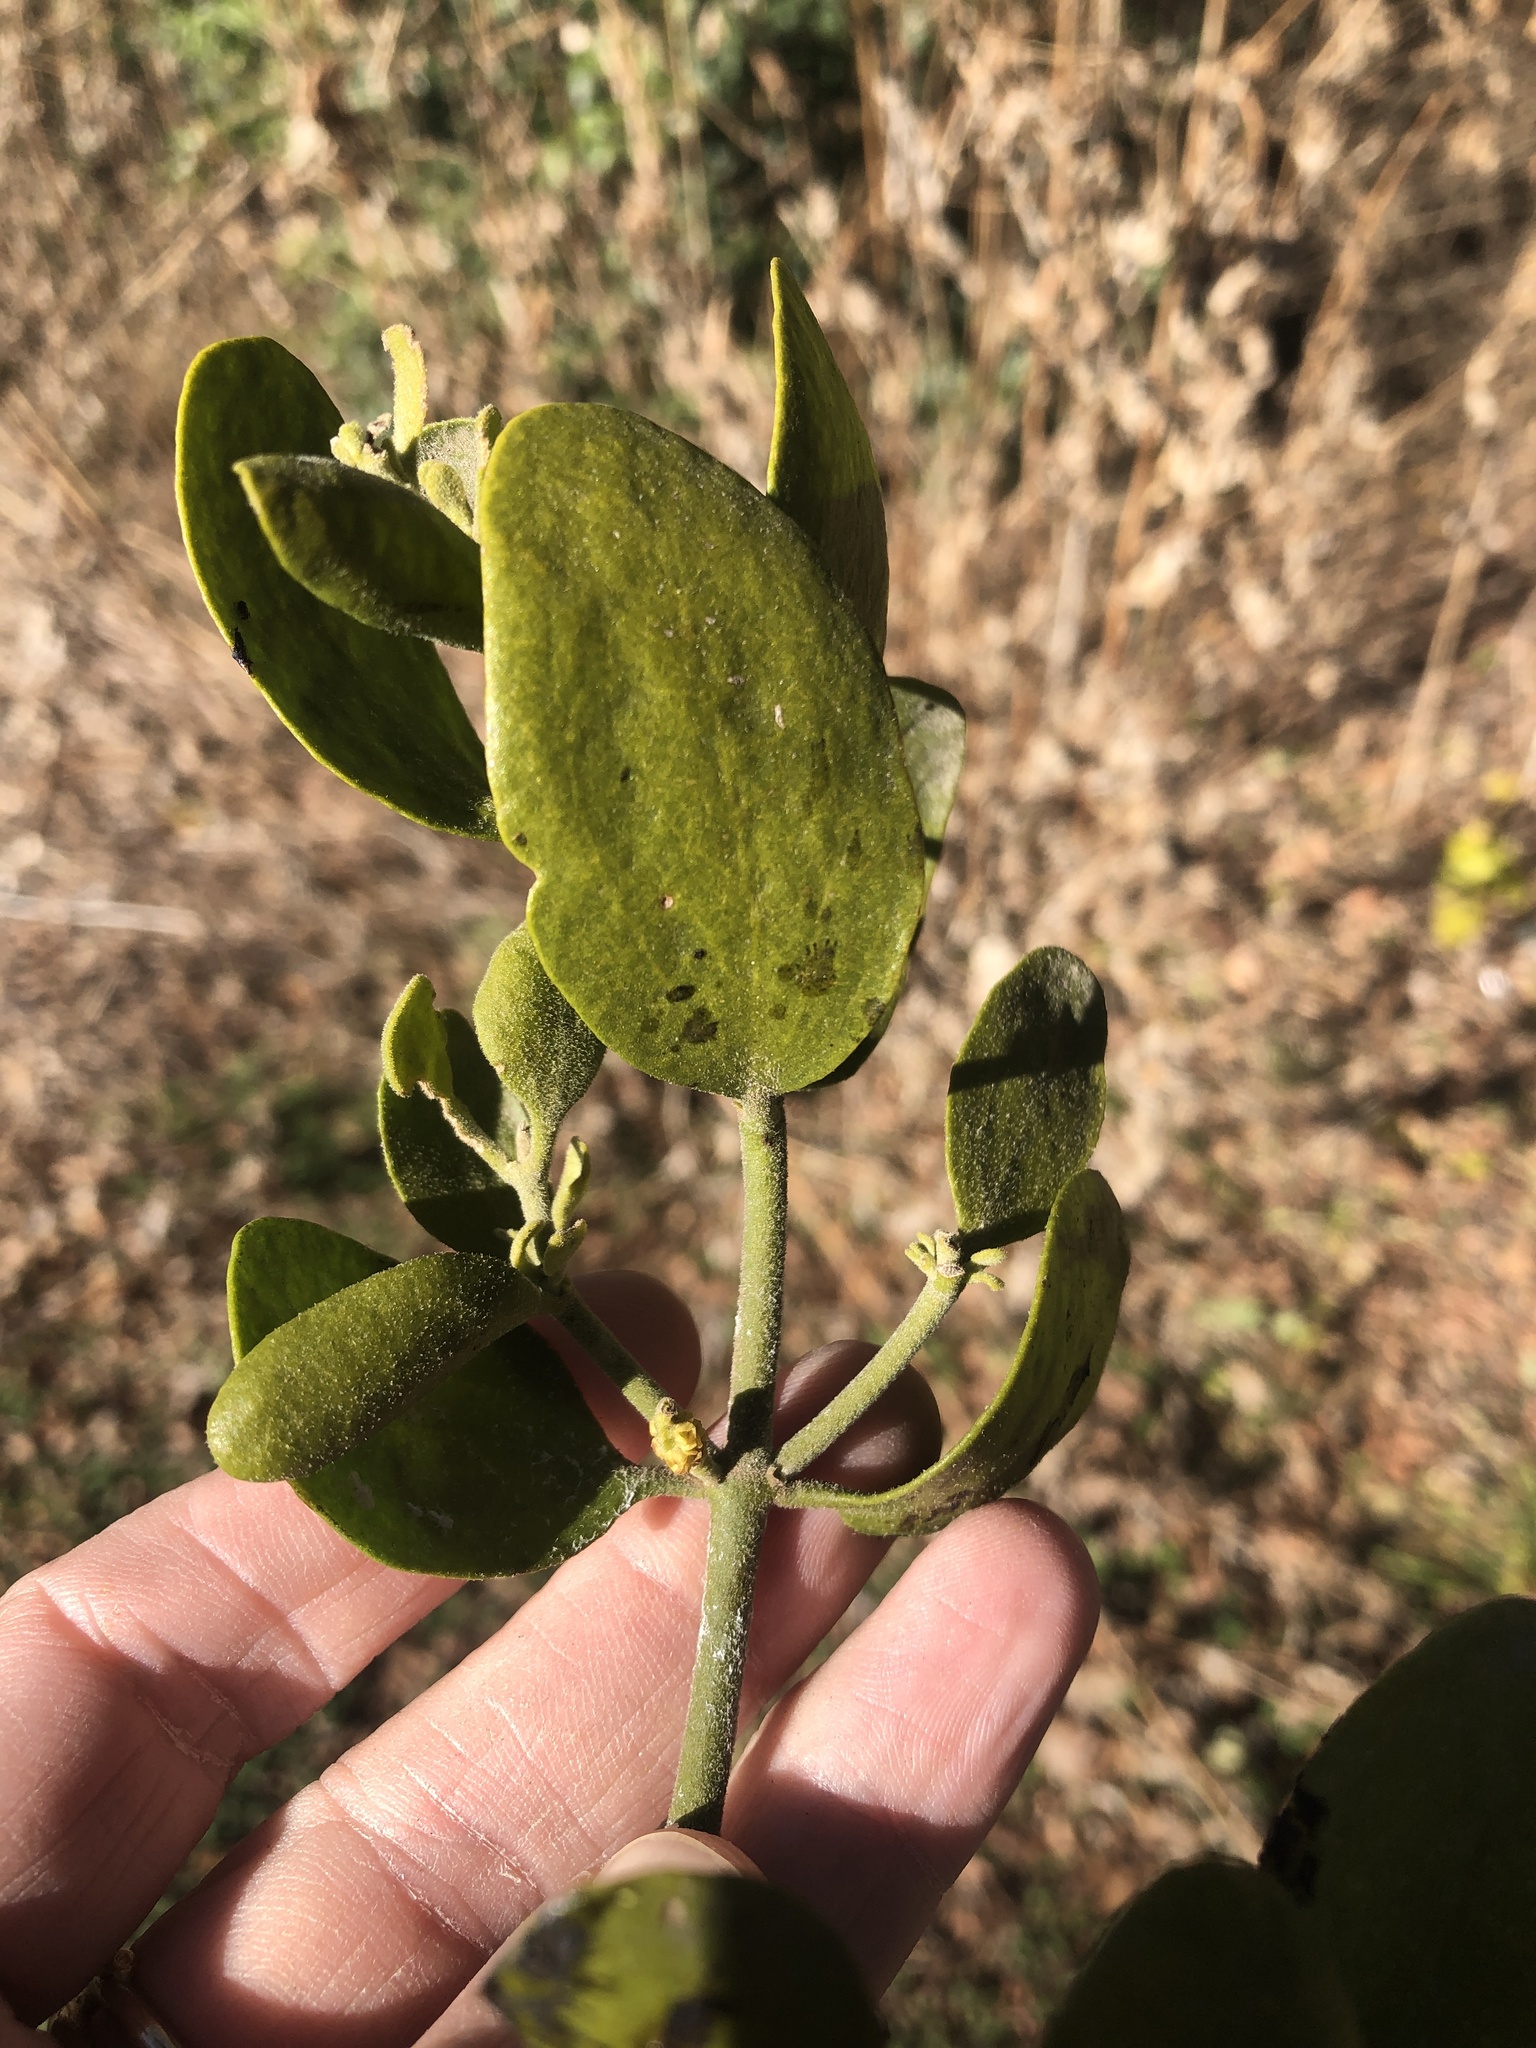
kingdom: Plantae
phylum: Tracheophyta
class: Magnoliopsida
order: Santalales
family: Viscaceae
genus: Phoradendron
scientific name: Phoradendron leucarpum
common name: Pacific mistletoe
